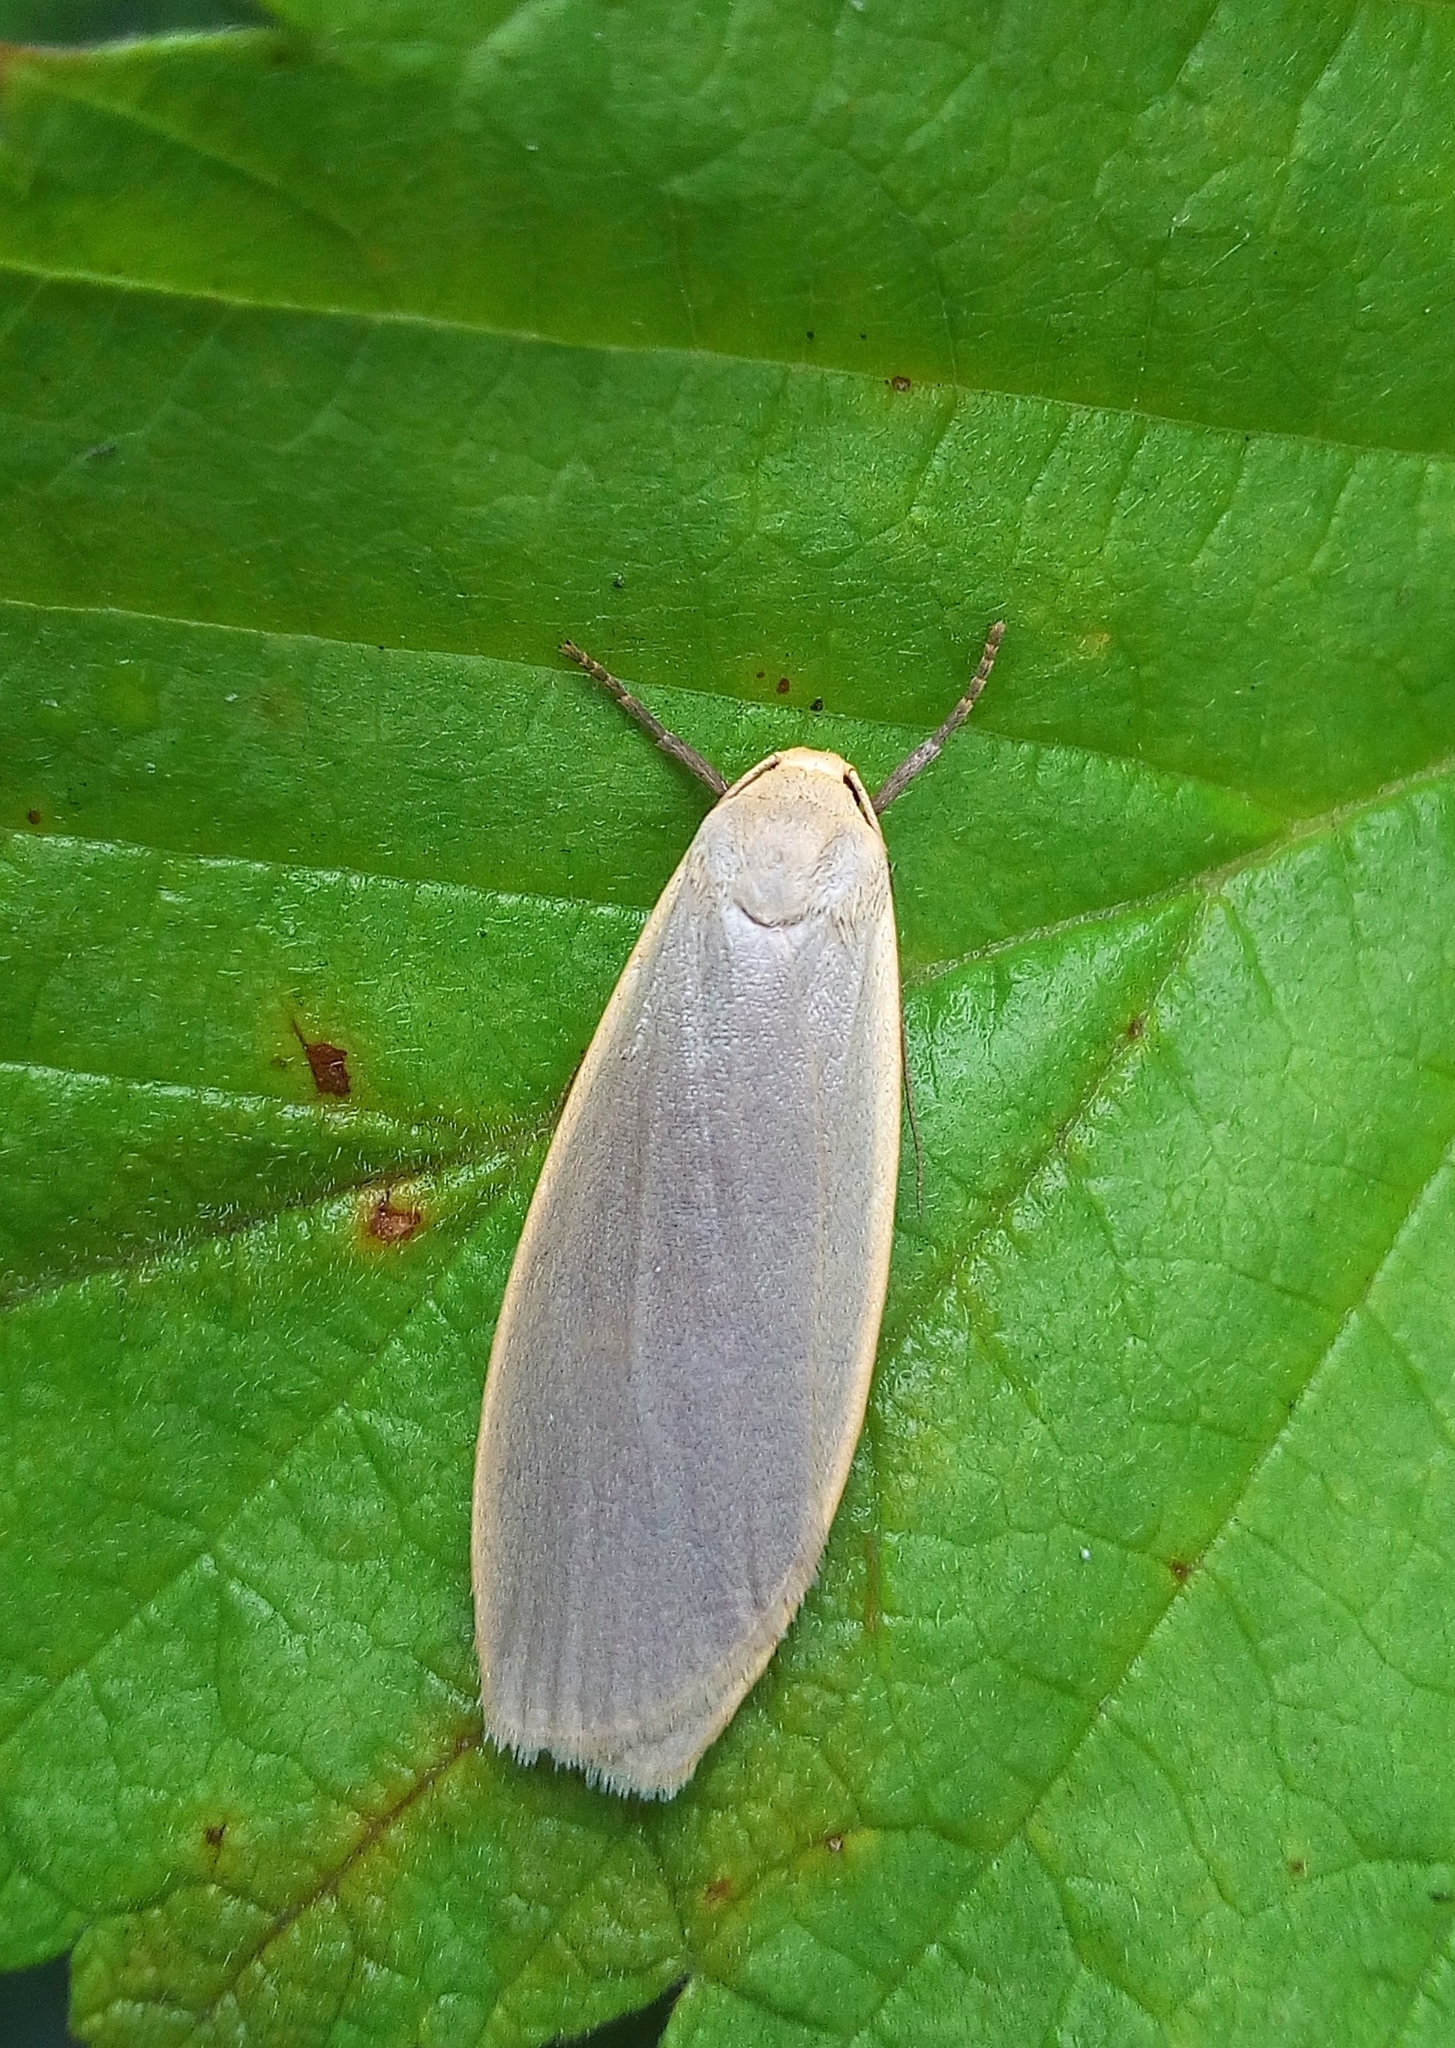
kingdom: Animalia
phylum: Arthropoda
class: Insecta
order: Lepidoptera
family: Erebidae
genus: Collita
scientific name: Collita griseola
